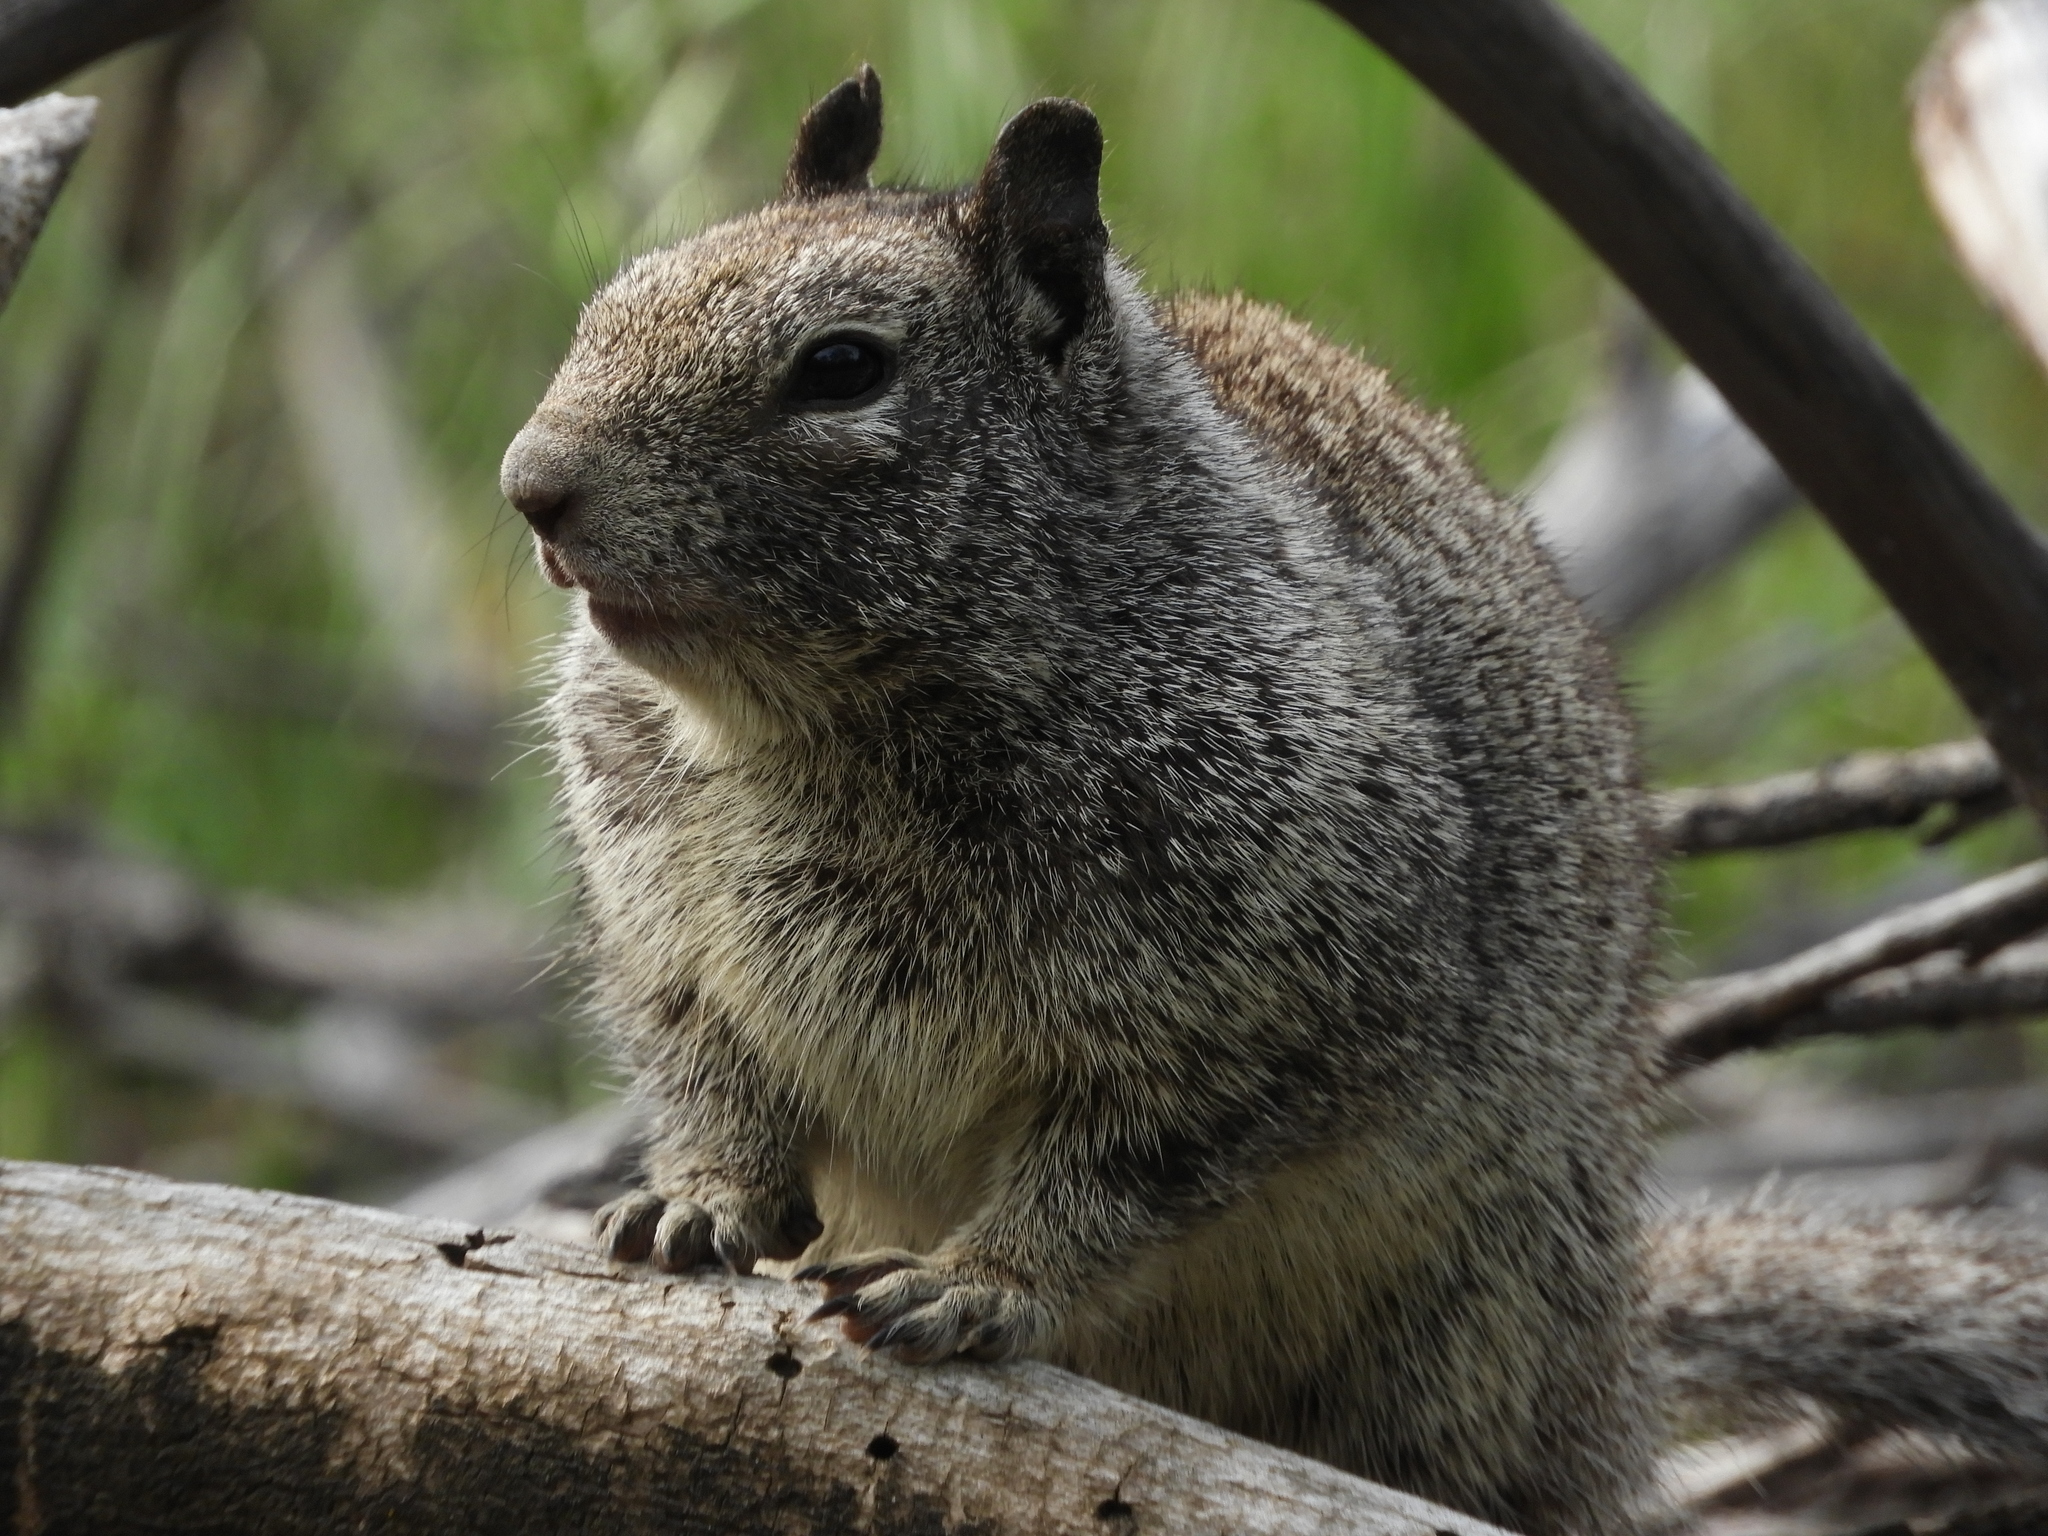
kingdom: Animalia
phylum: Chordata
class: Mammalia
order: Rodentia
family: Sciuridae
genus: Otospermophilus
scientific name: Otospermophilus beecheyi
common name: California ground squirrel
